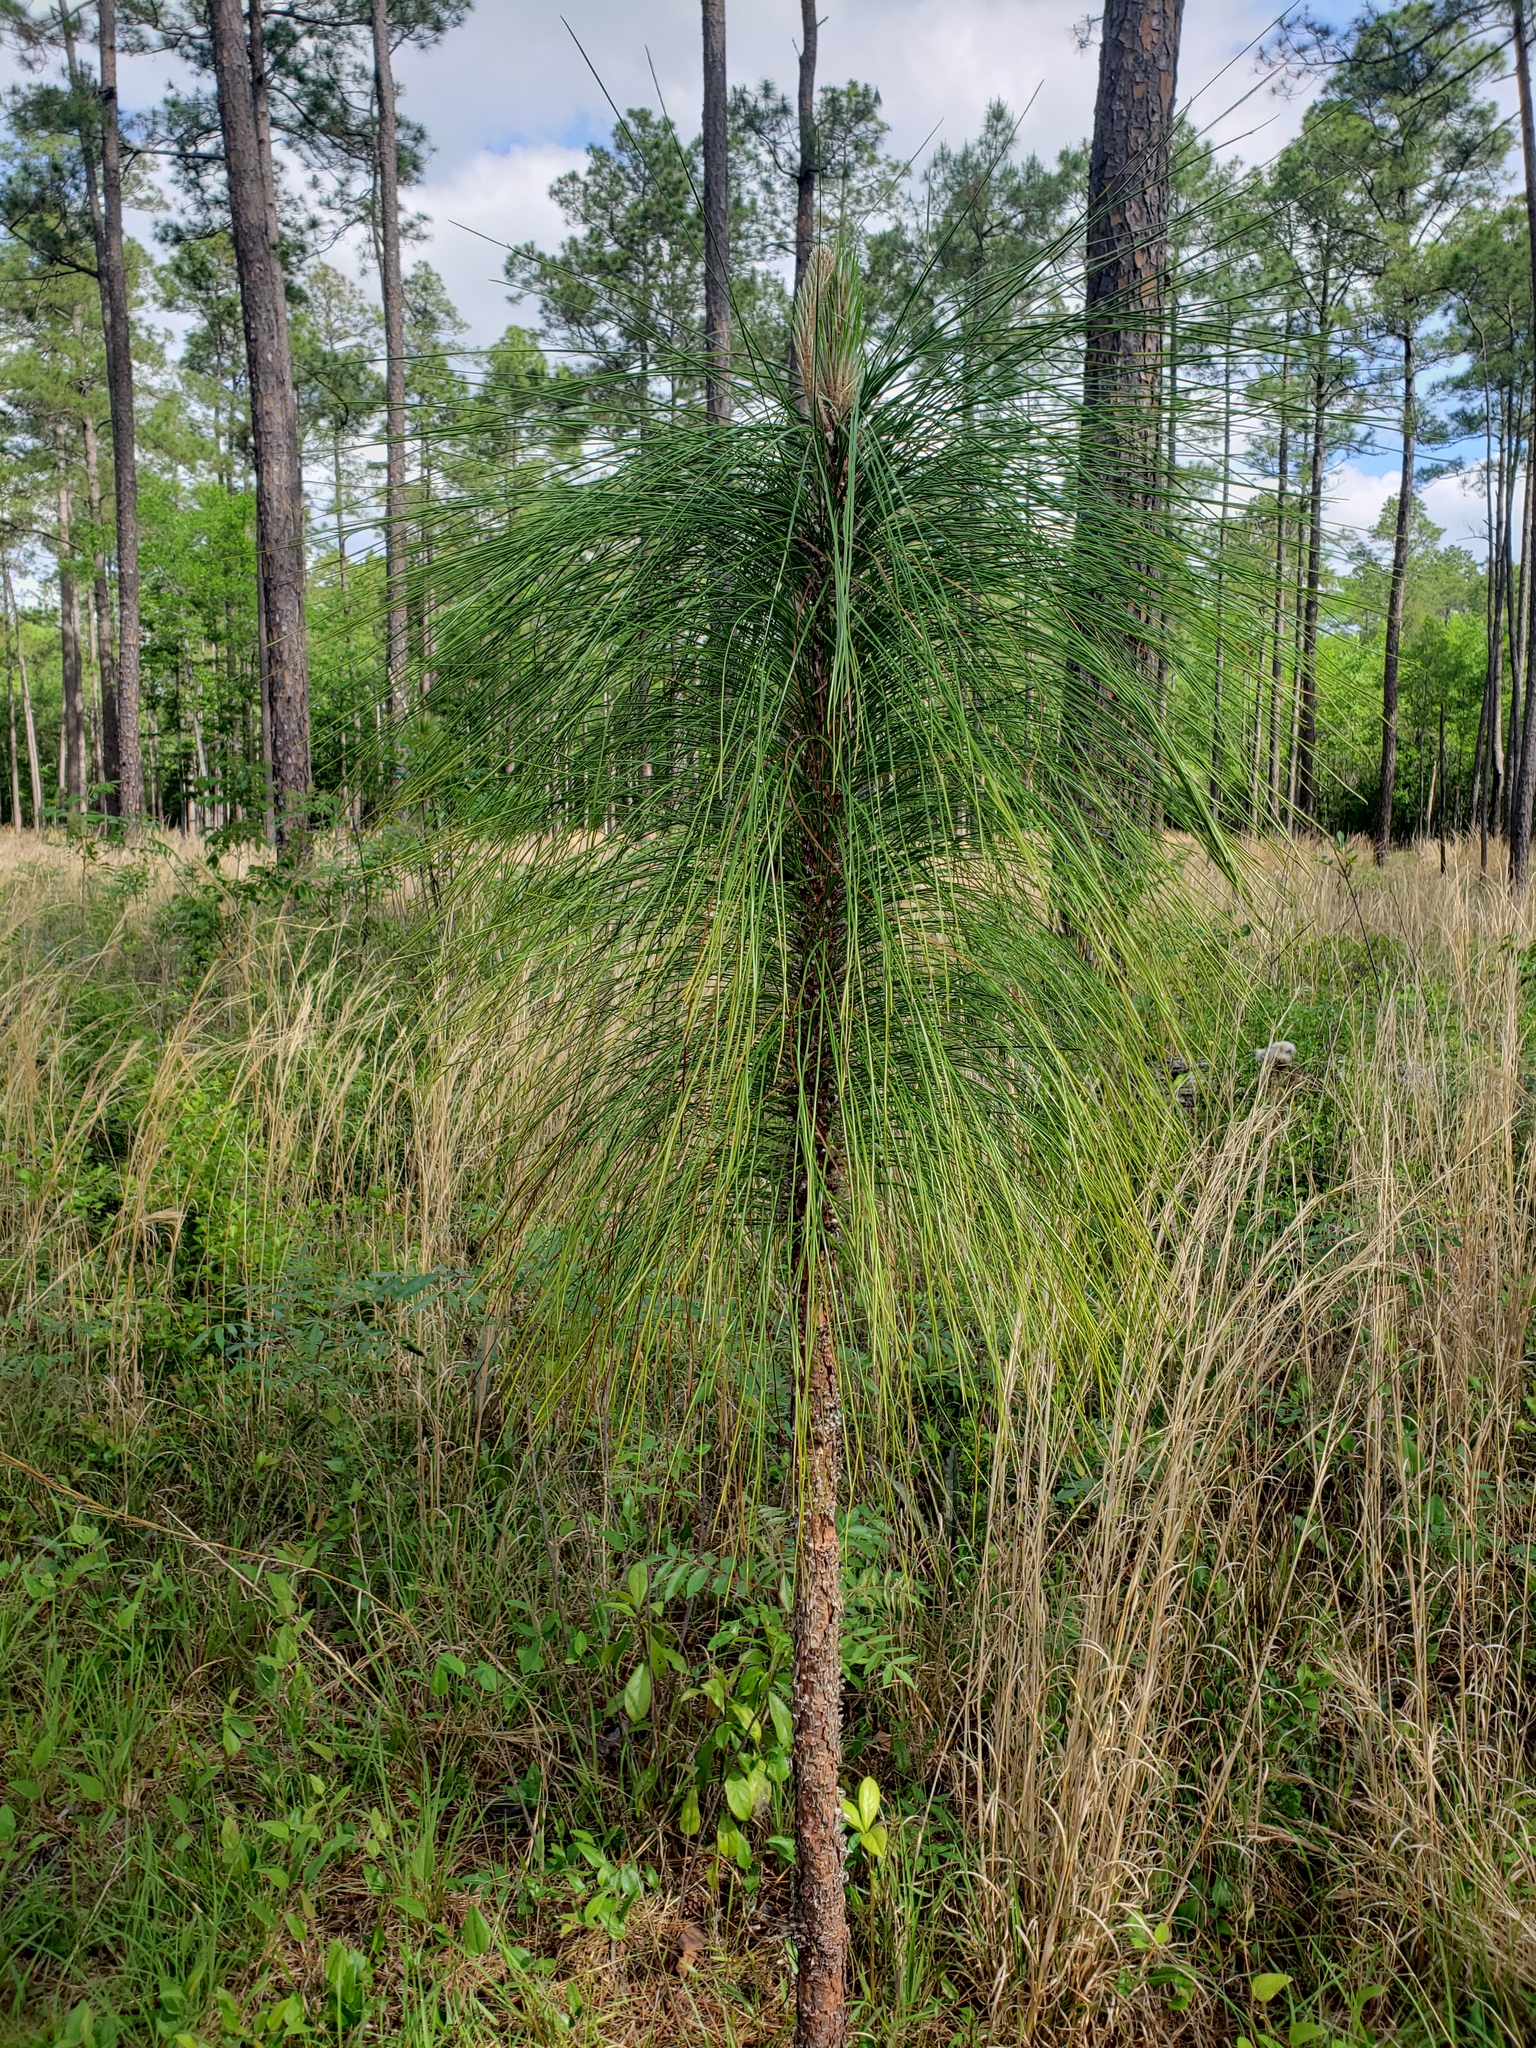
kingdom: Plantae
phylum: Tracheophyta
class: Pinopsida
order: Pinales
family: Pinaceae
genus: Pinus
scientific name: Pinus palustris
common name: Longleaf pine
